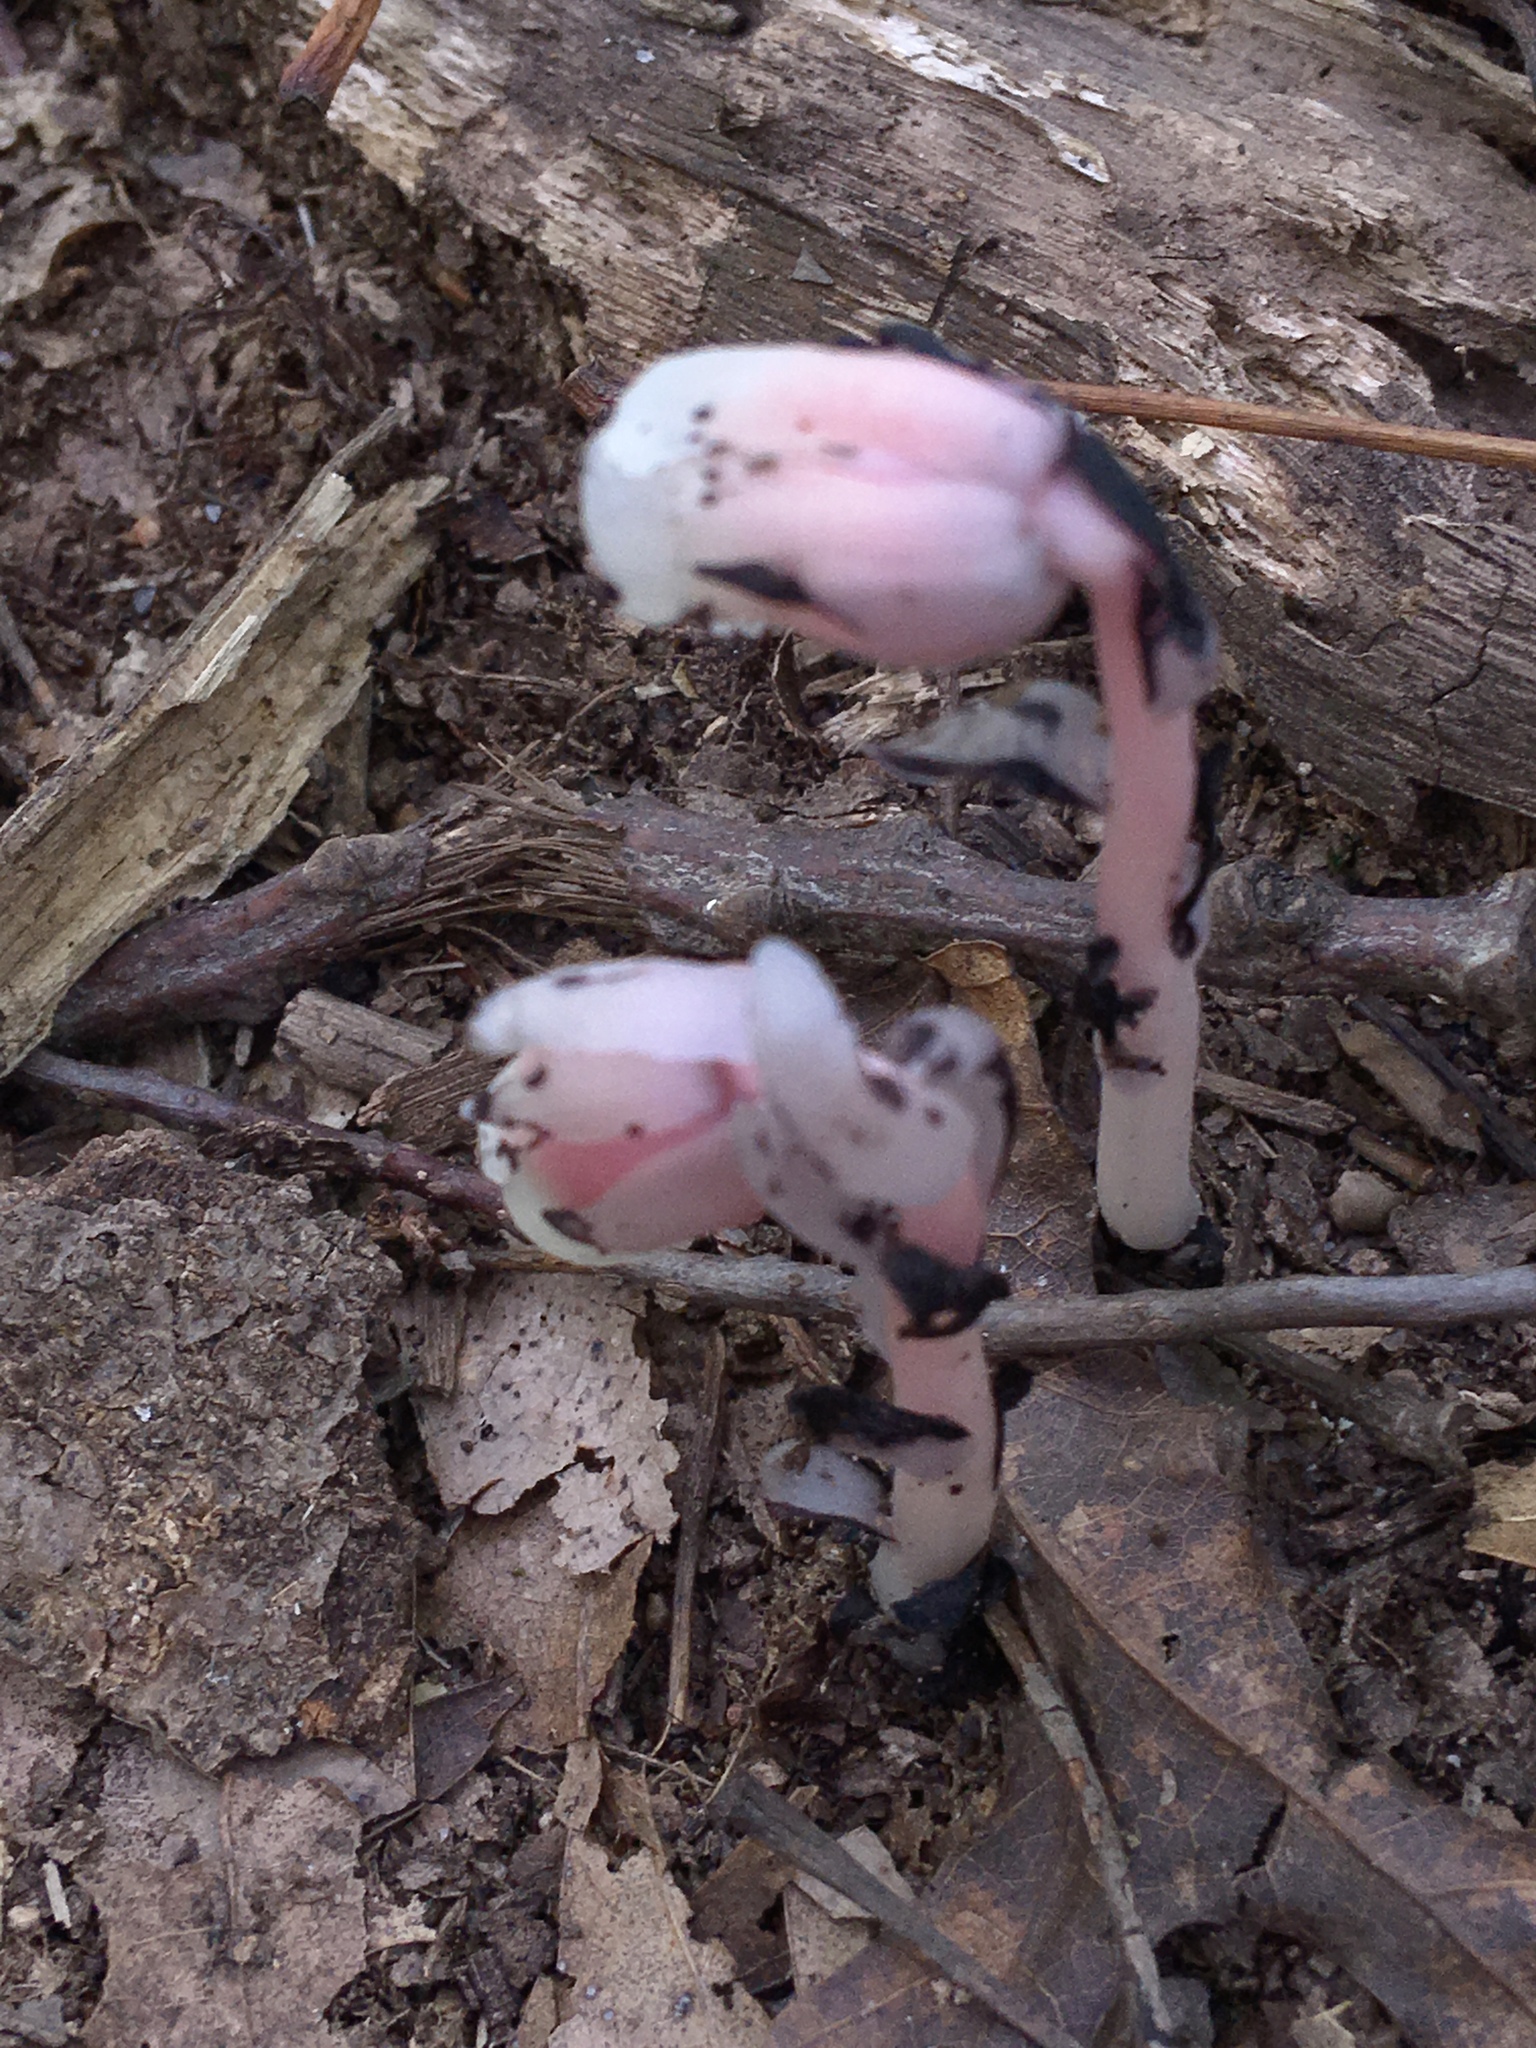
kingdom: Plantae
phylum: Tracheophyta
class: Magnoliopsida
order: Ericales
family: Ericaceae
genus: Monotropa
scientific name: Monotropa uniflora
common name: Convulsion root
